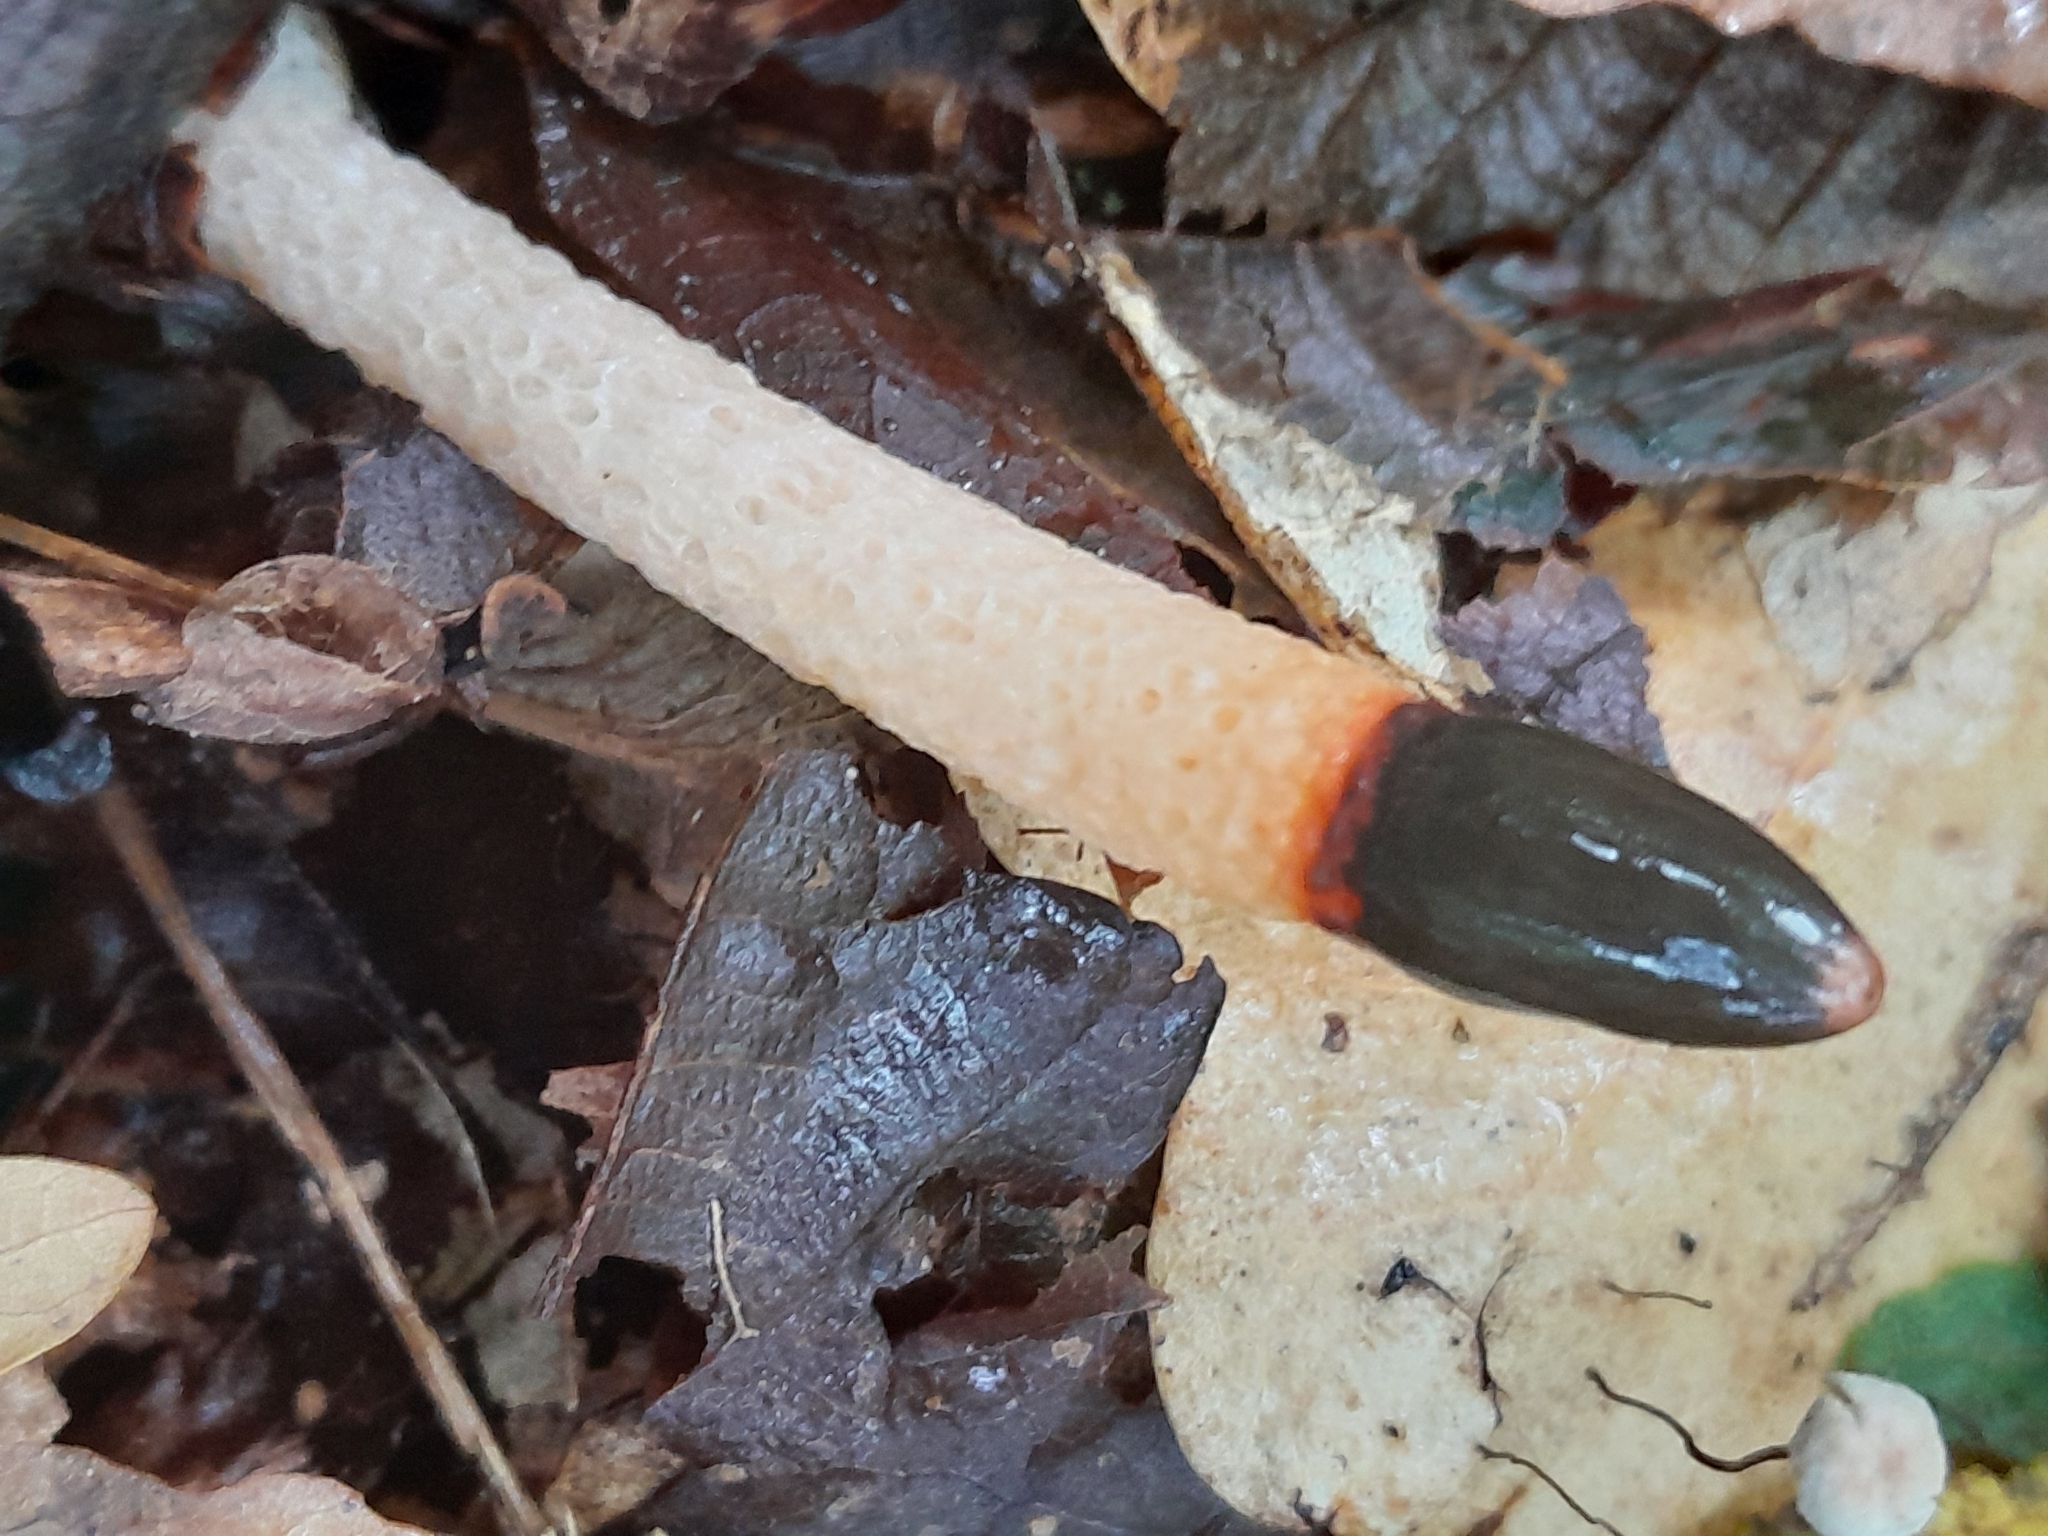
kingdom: Fungi
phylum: Basidiomycota
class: Agaricomycetes
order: Phallales
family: Phallaceae
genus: Mutinus
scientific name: Mutinus caninus
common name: Dog stinkhorn
